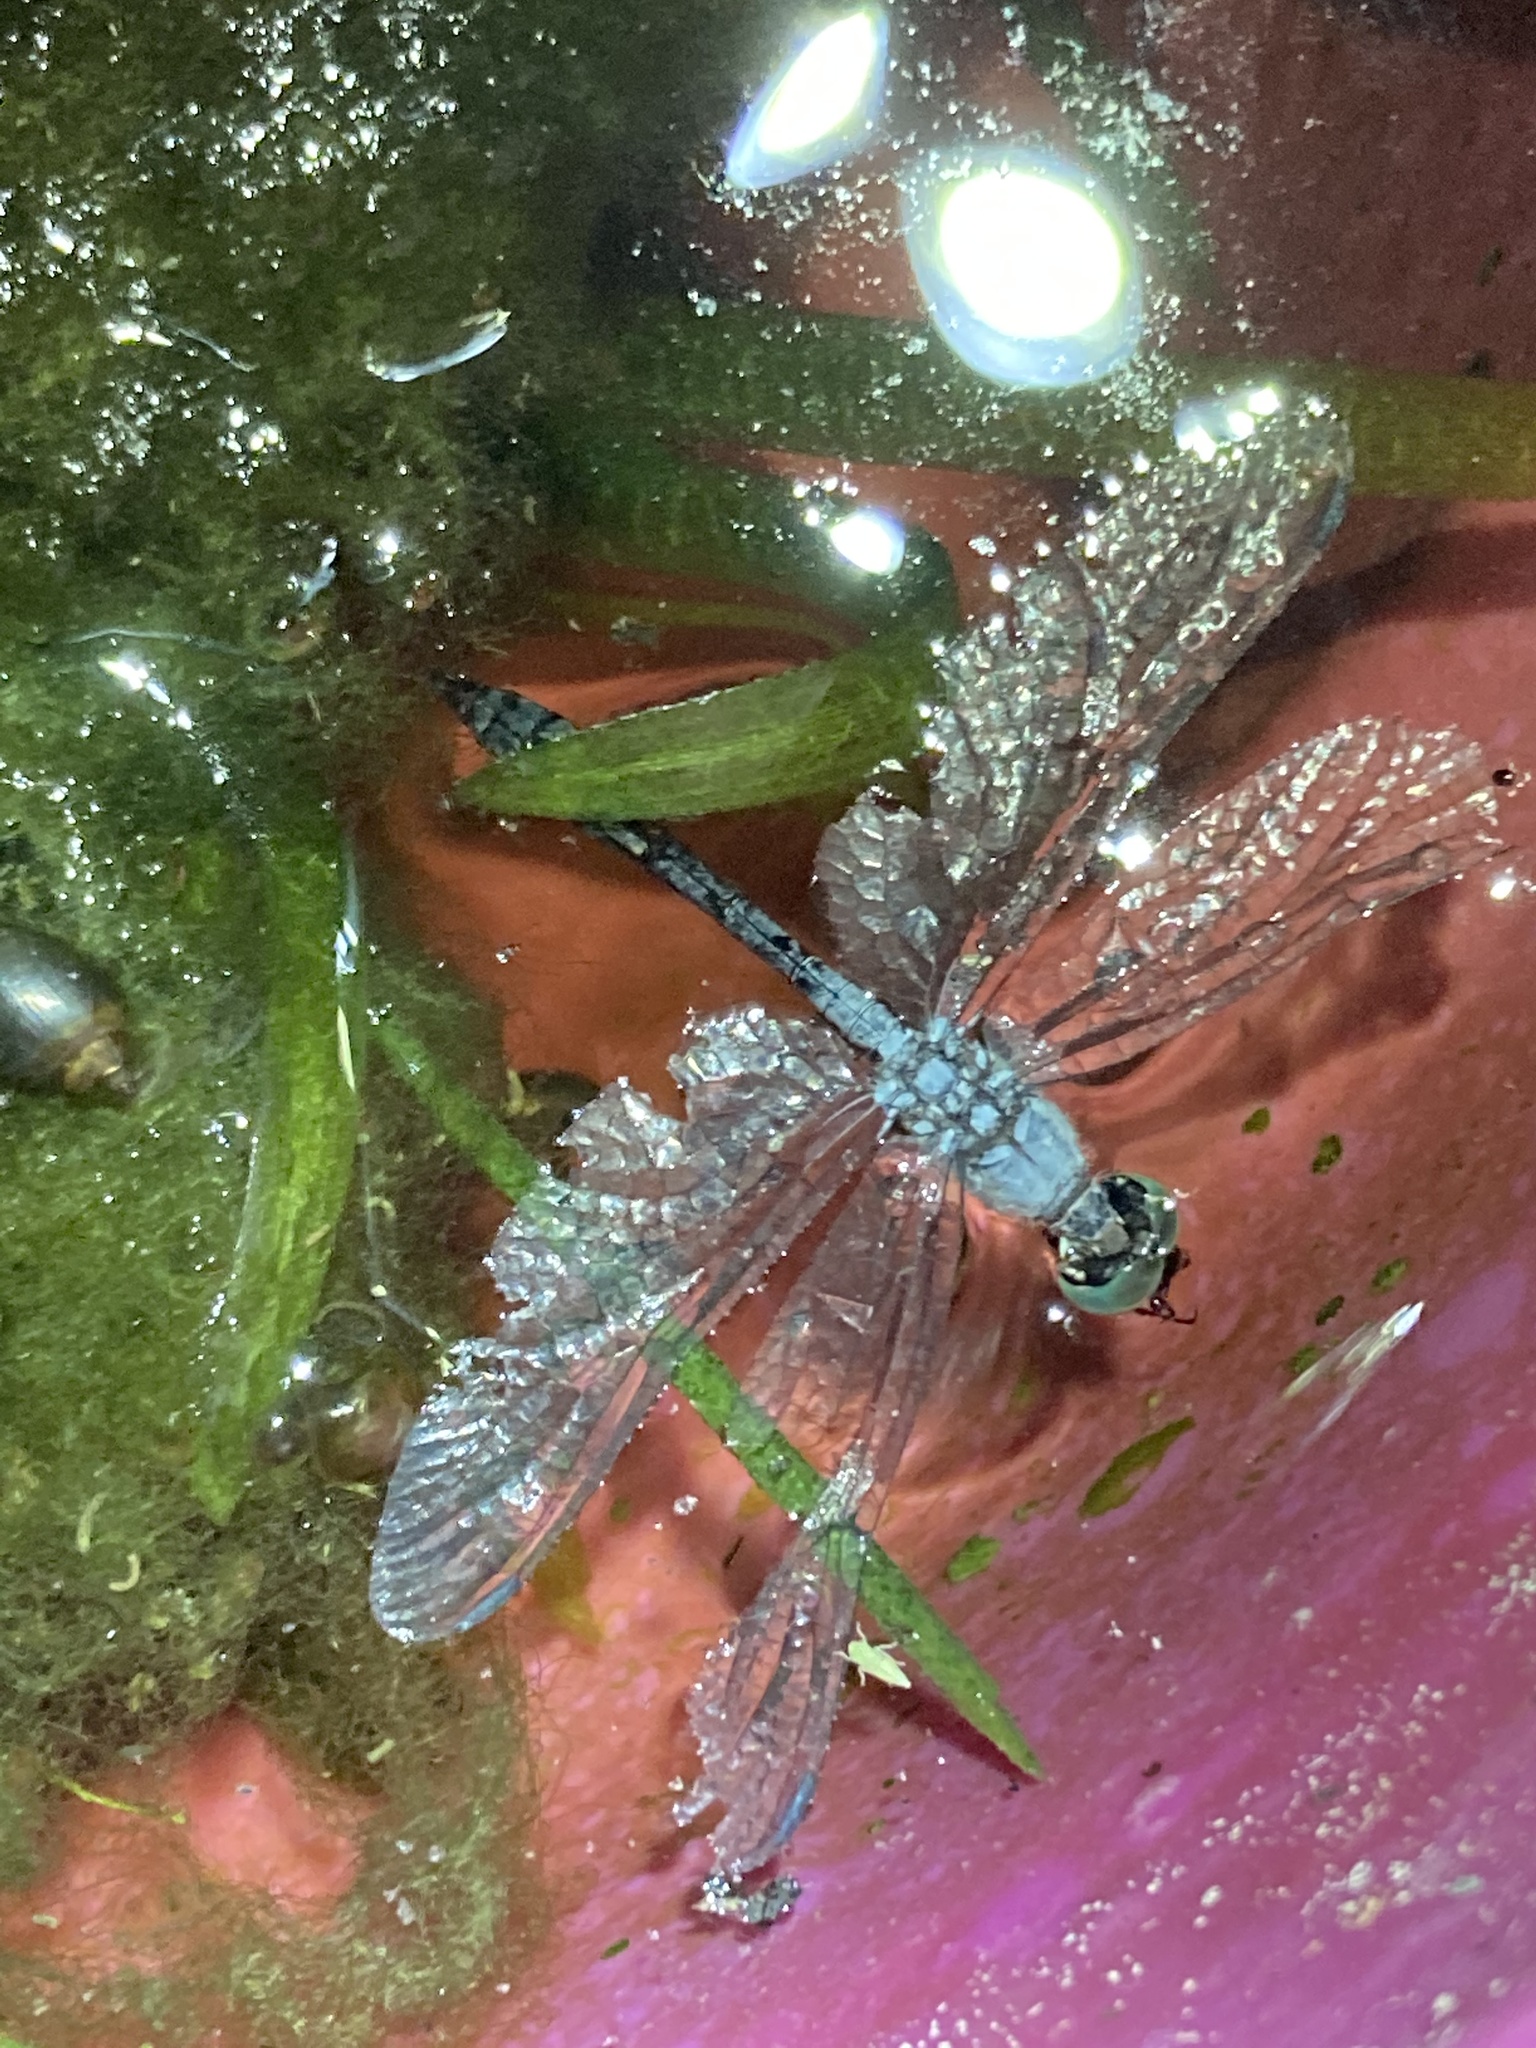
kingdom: Animalia
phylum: Arthropoda
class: Insecta
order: Odonata
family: Libellulidae
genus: Micrathyria
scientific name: Micrathyria aequalis
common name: Spot-tailed dasher
